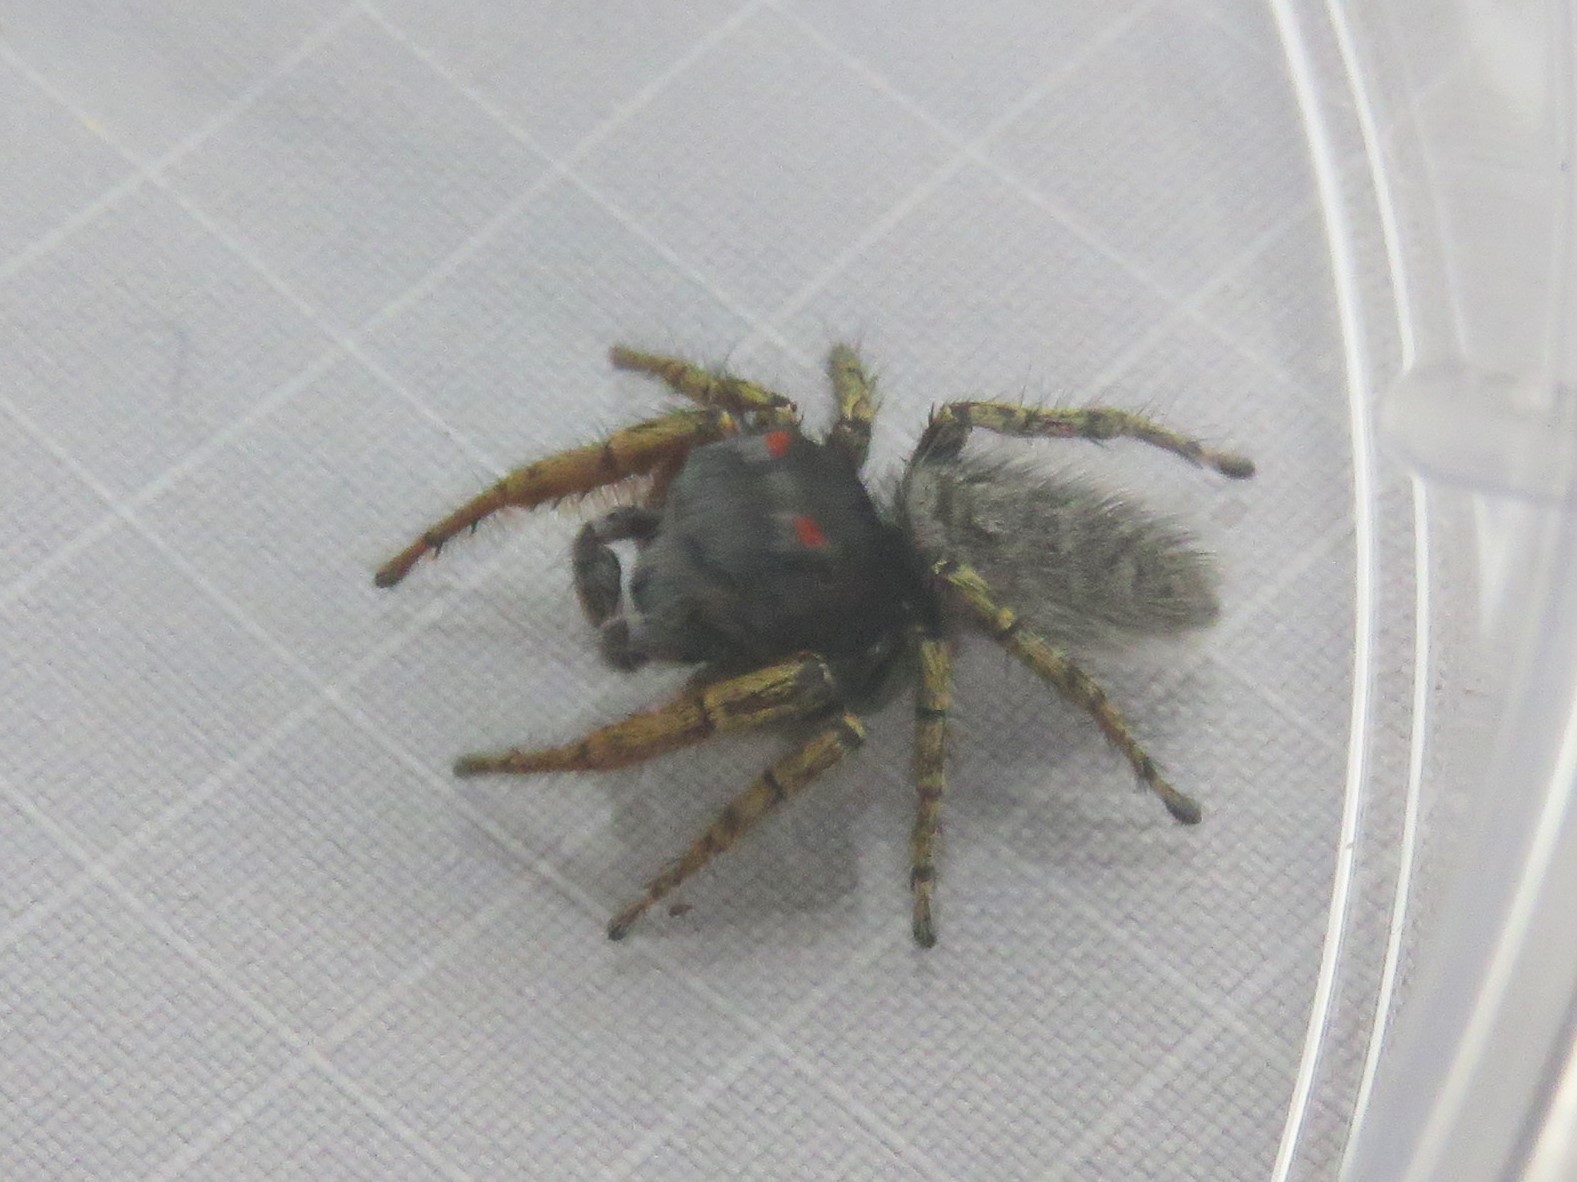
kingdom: Animalia
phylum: Arthropoda
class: Arachnida
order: Araneae
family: Salticidae
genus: Phidippus
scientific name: Phidippus mystaceus
